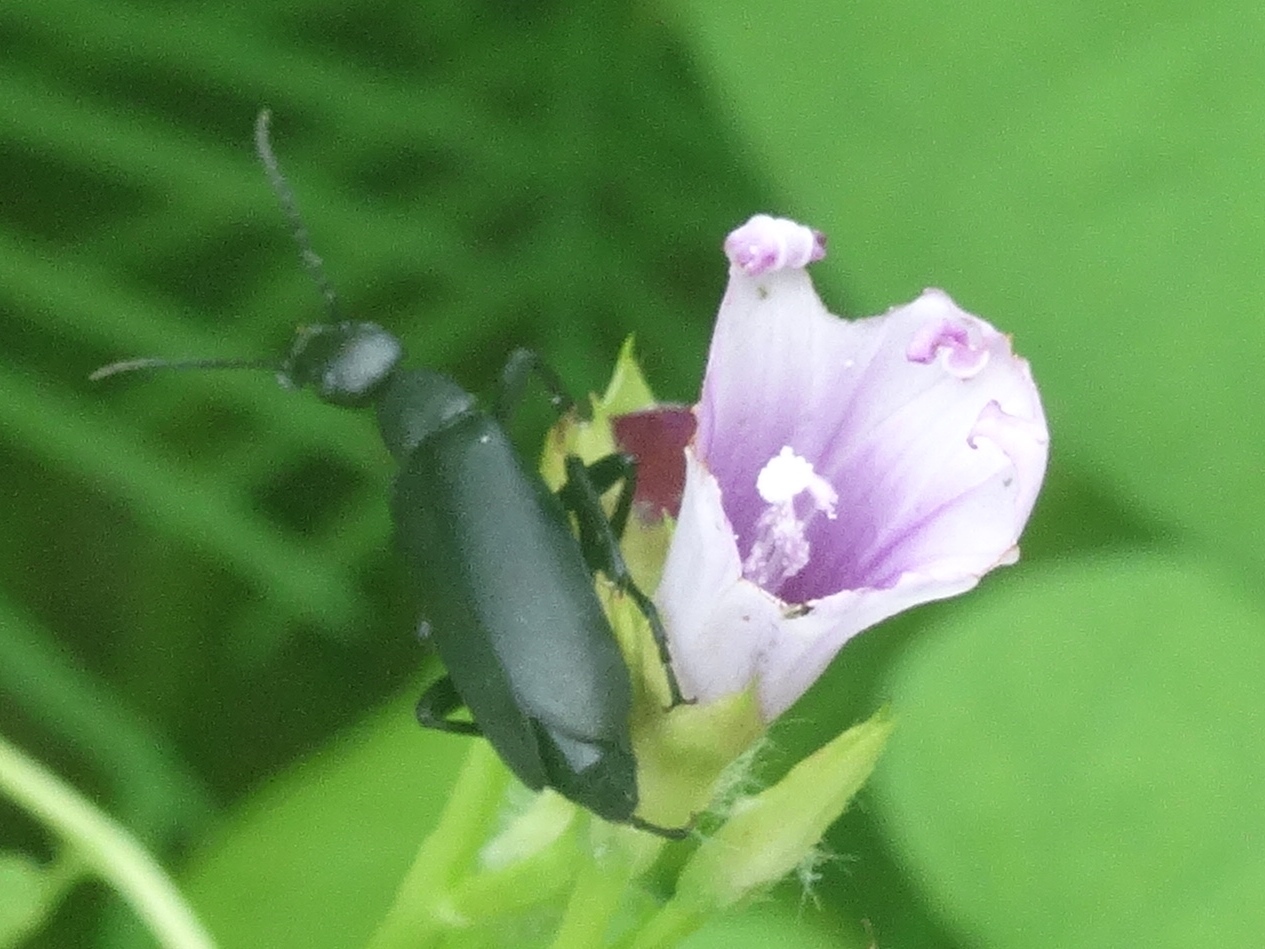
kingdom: Animalia
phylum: Arthropoda
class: Insecta
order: Coleoptera
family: Meloidae
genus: Epicauta
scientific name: Epicauta
